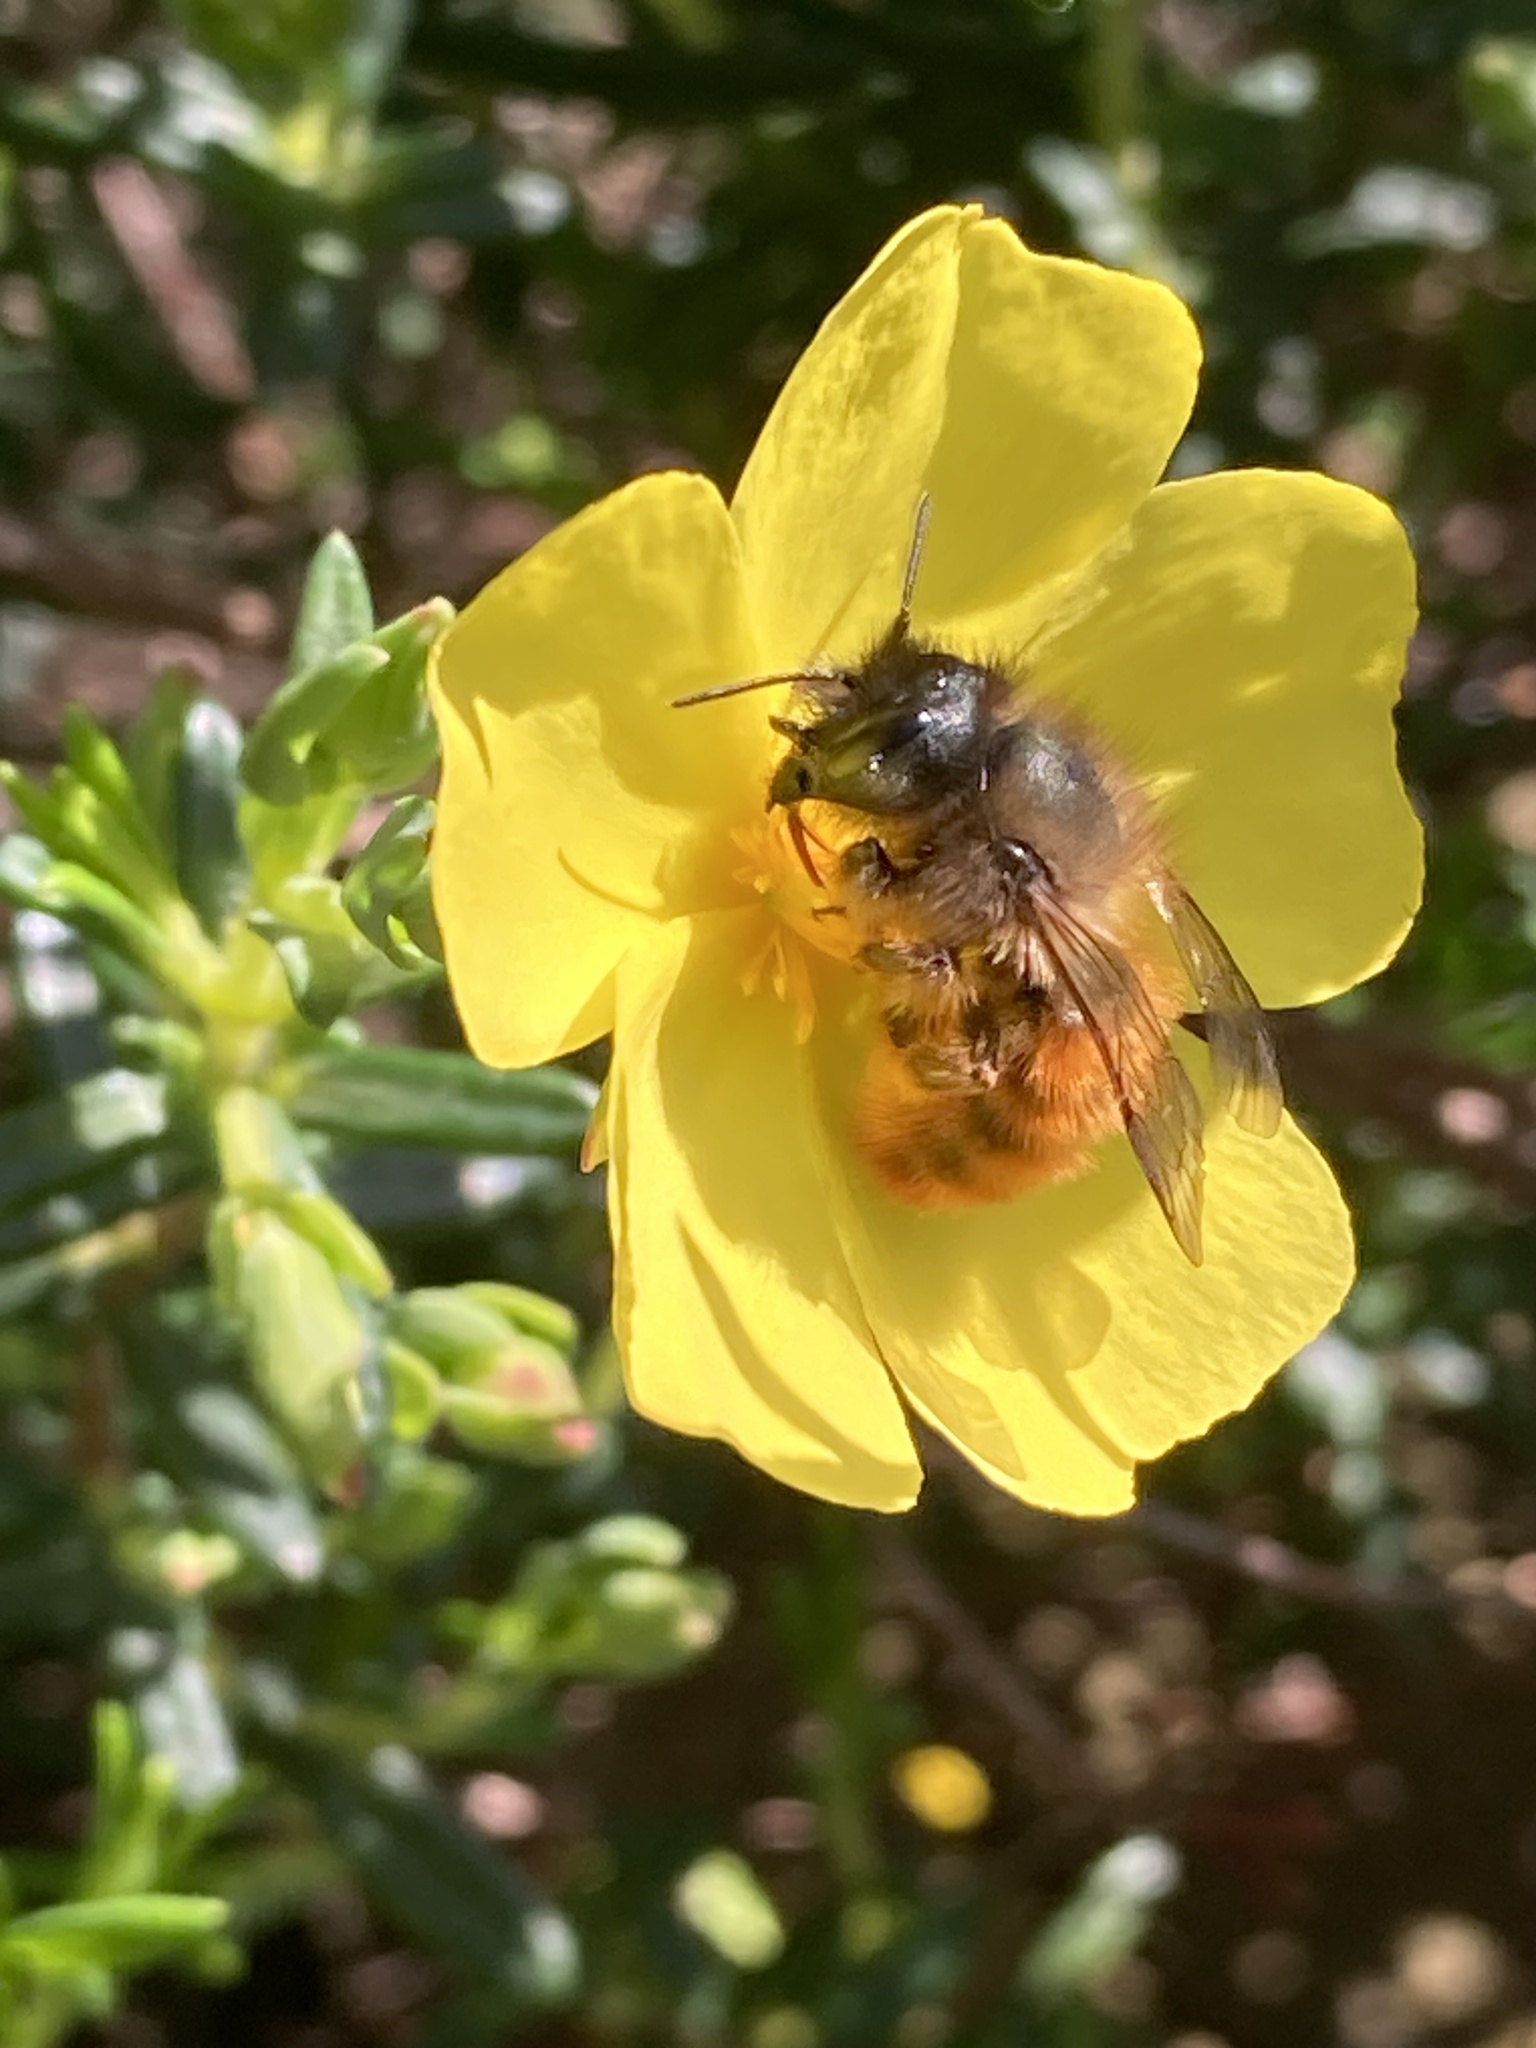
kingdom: Animalia
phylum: Arthropoda
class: Insecta
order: Hymenoptera
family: Megachilidae
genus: Osmia
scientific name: Osmia bicornis
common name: Red mason bee
